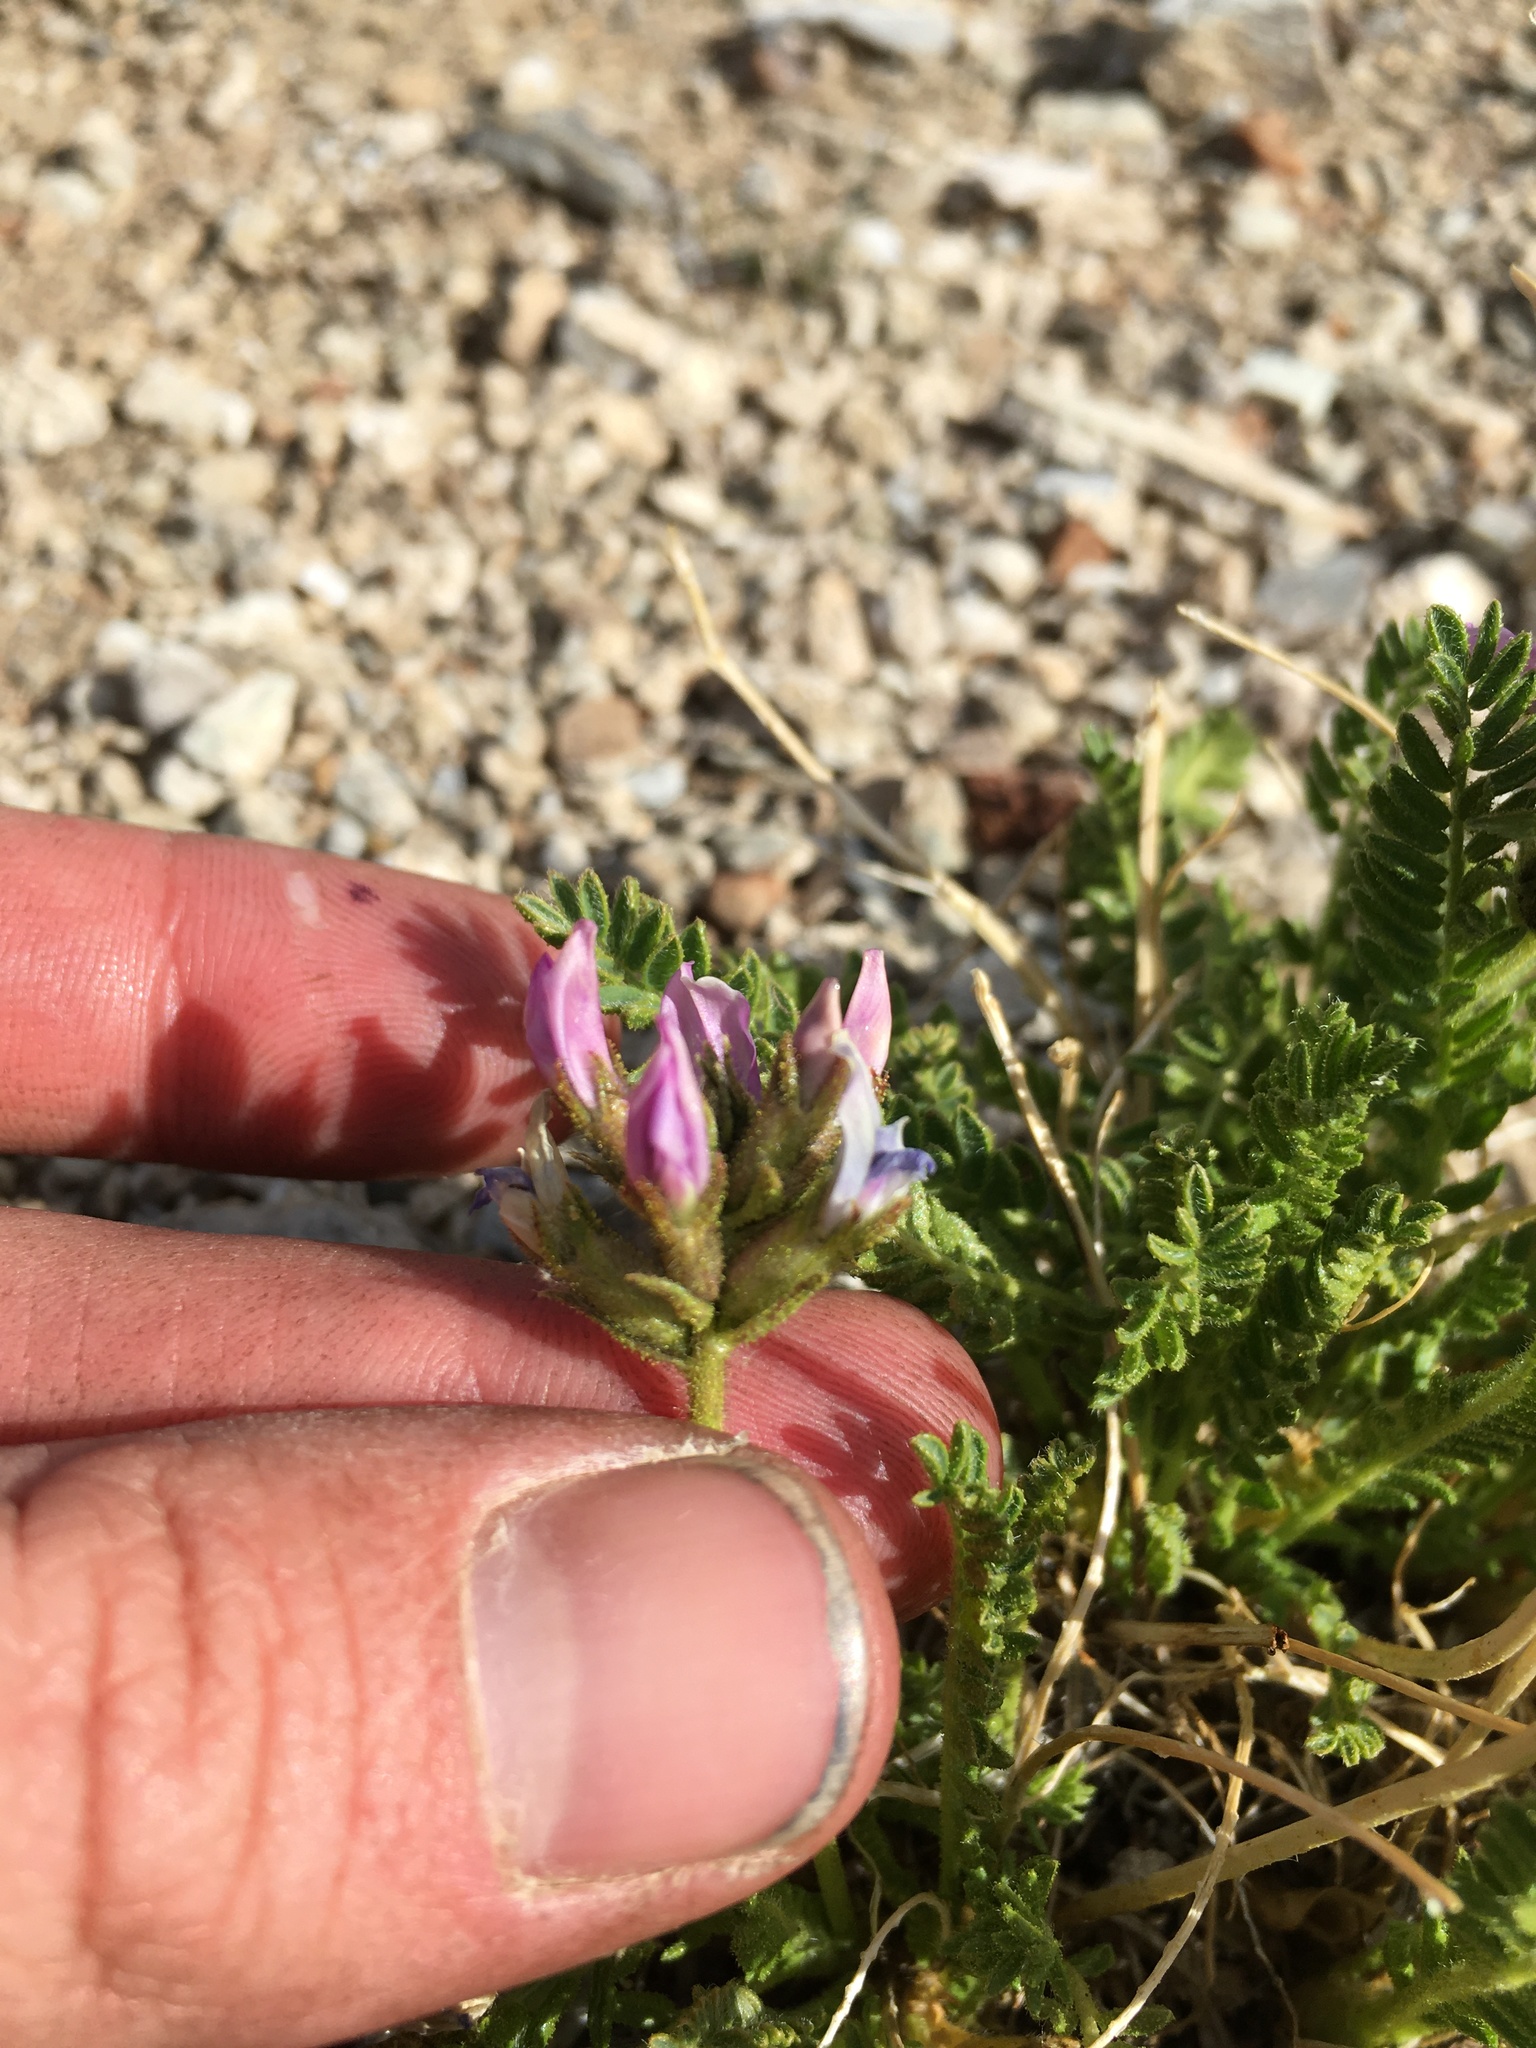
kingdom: Plantae
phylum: Tracheophyta
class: Magnoliopsida
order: Fabales
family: Fabaceae
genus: Oxytropis
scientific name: Oxytropis borealis
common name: Boreal locoweed
